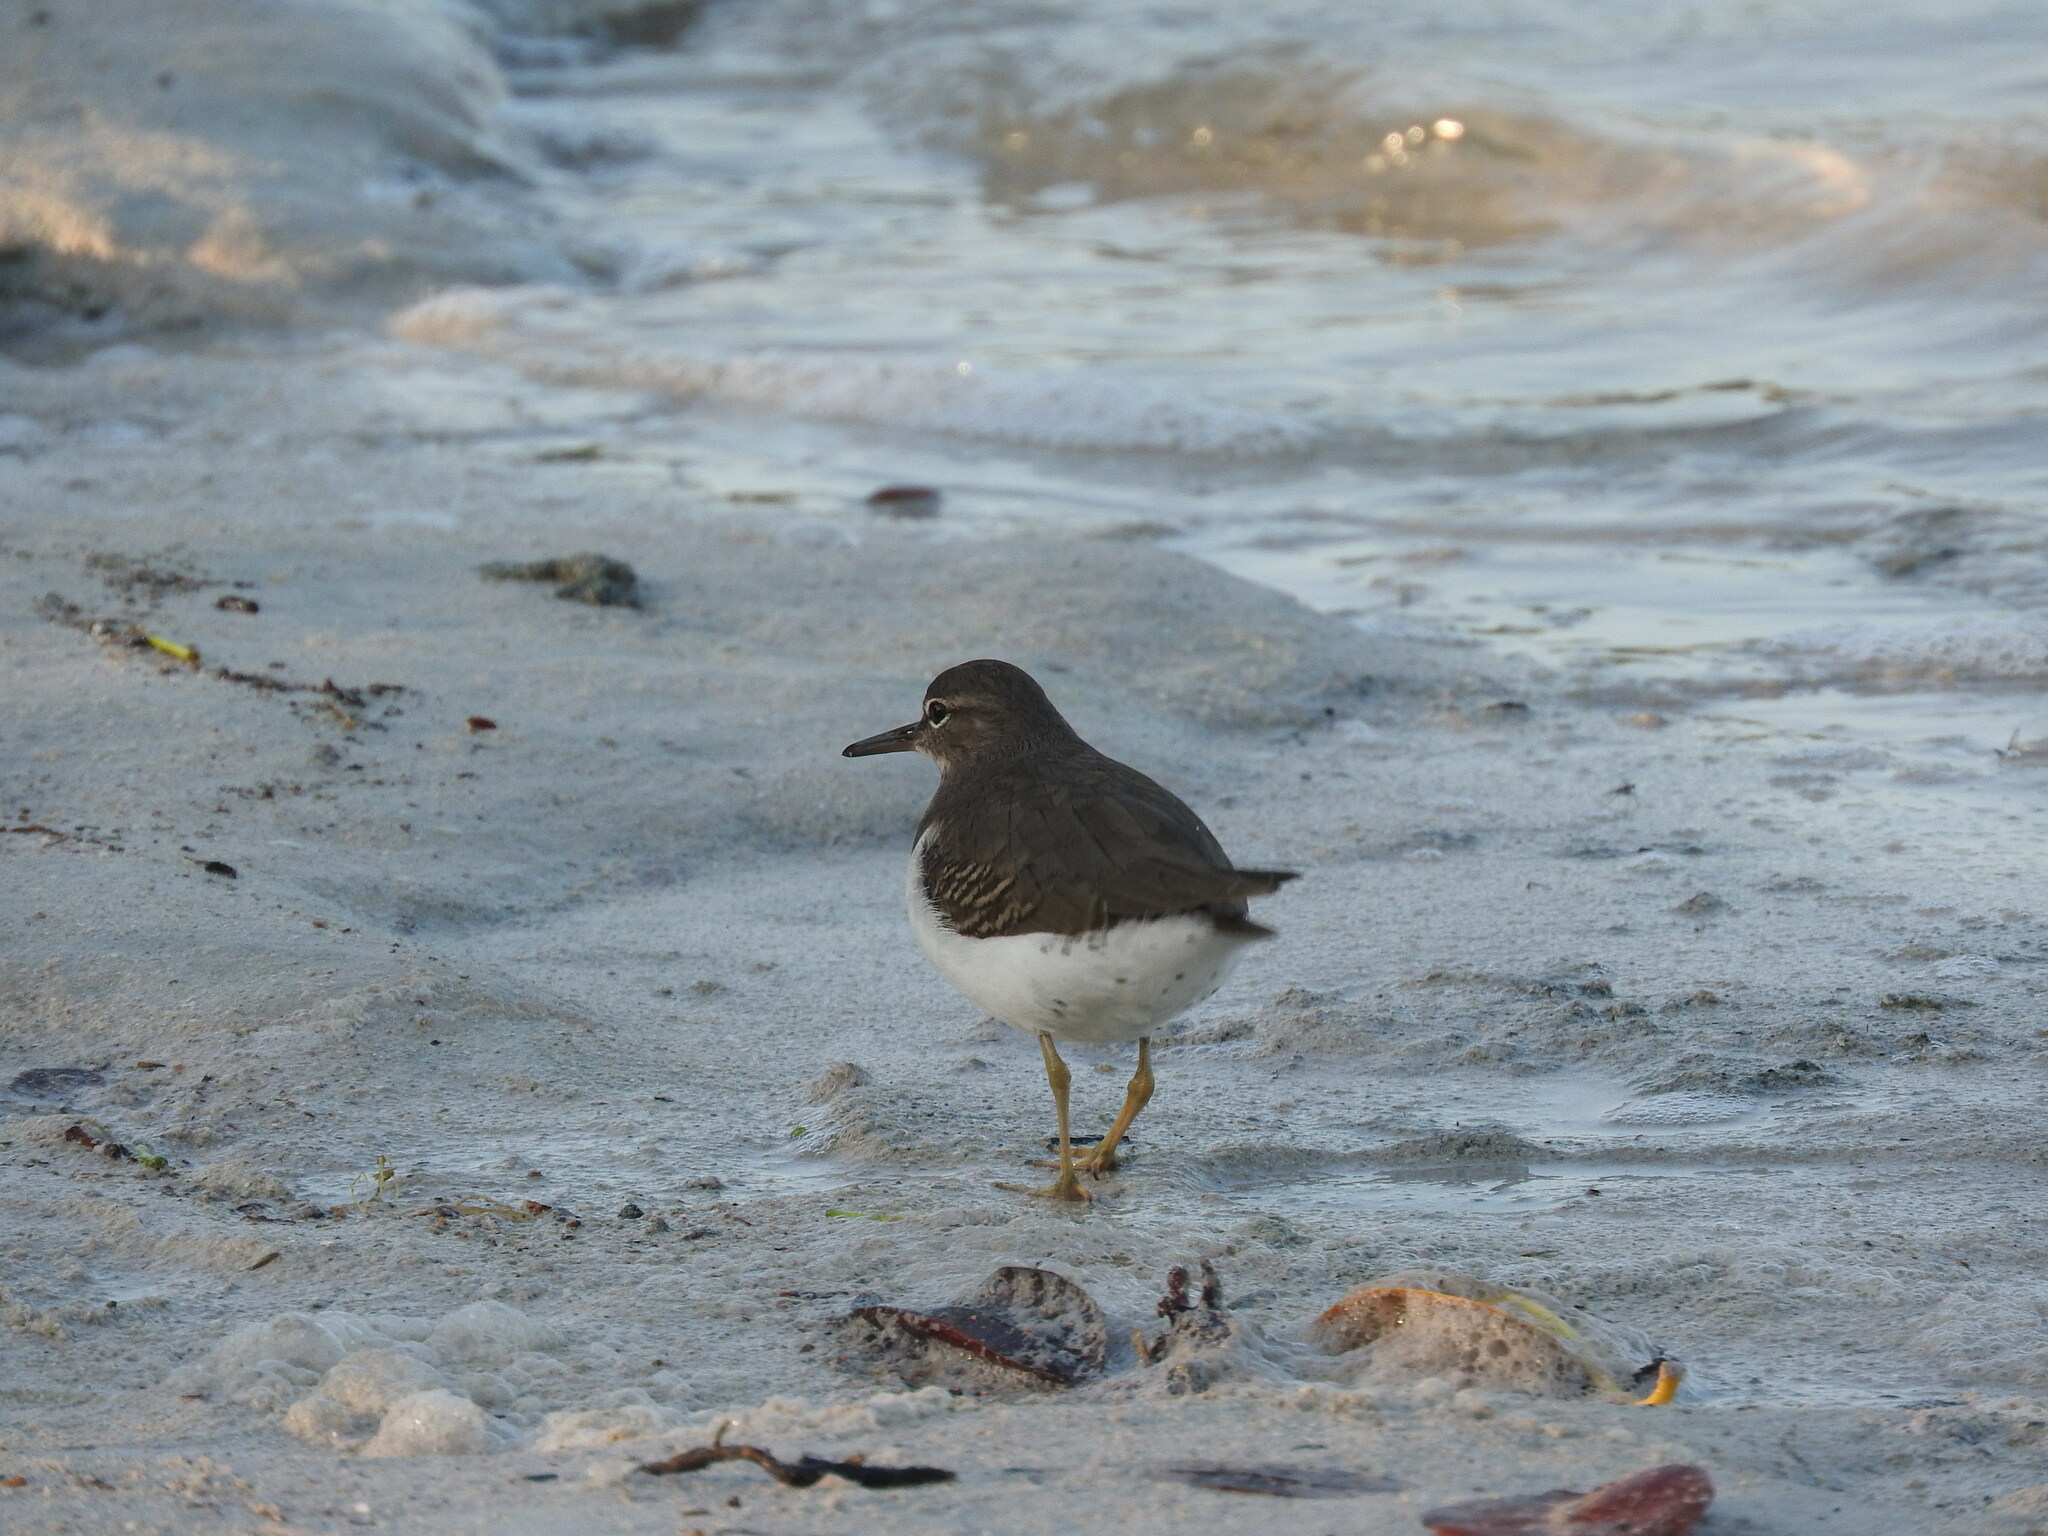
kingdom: Animalia
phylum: Chordata
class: Aves
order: Charadriiformes
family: Scolopacidae
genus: Actitis
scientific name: Actitis macularius
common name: Spotted sandpiper
